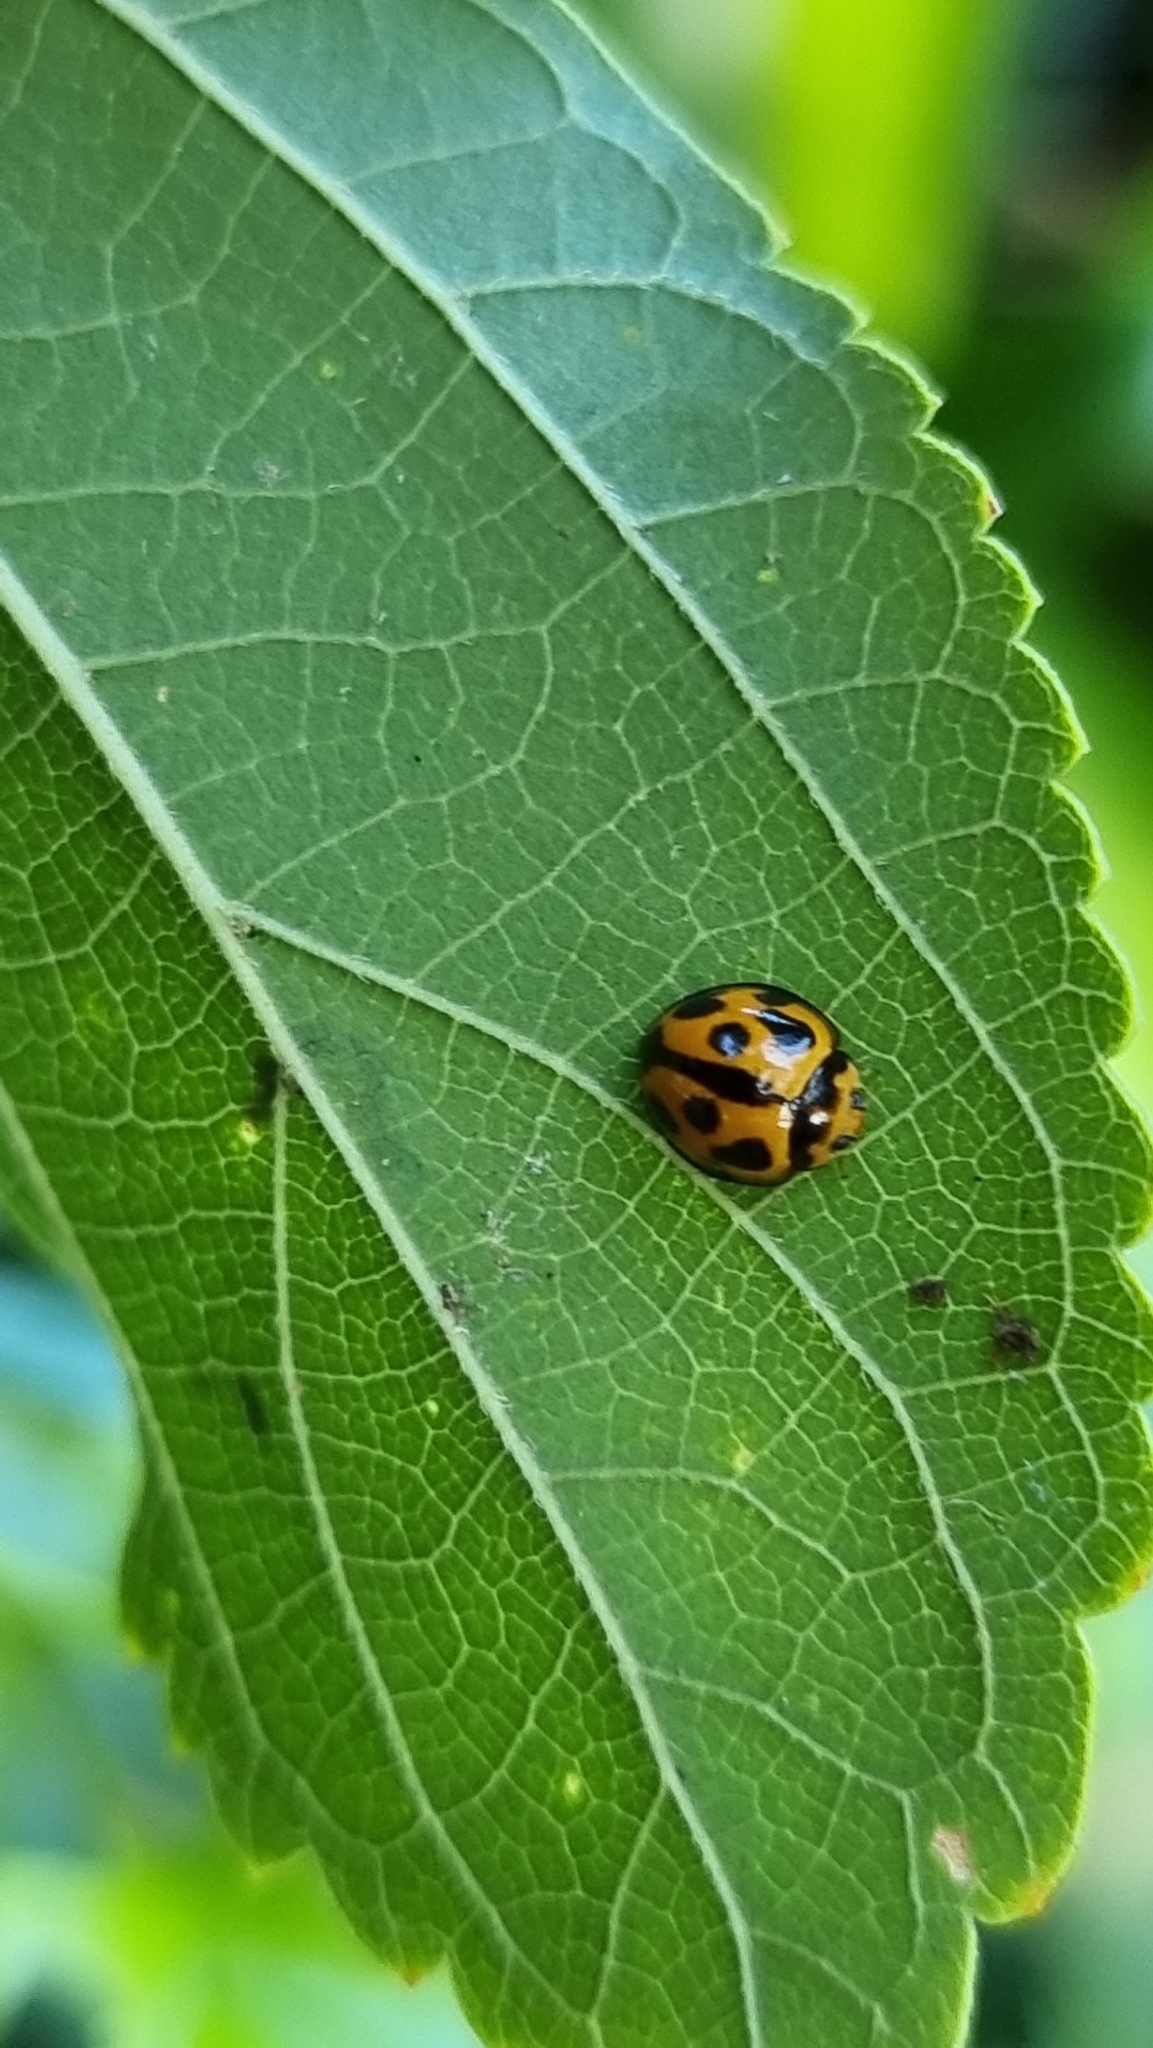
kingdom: Animalia
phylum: Arthropoda
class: Insecta
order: Coleoptera
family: Coccinellidae
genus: Coelophora
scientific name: Coelophora inaequalis
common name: Common australian lady beetle
